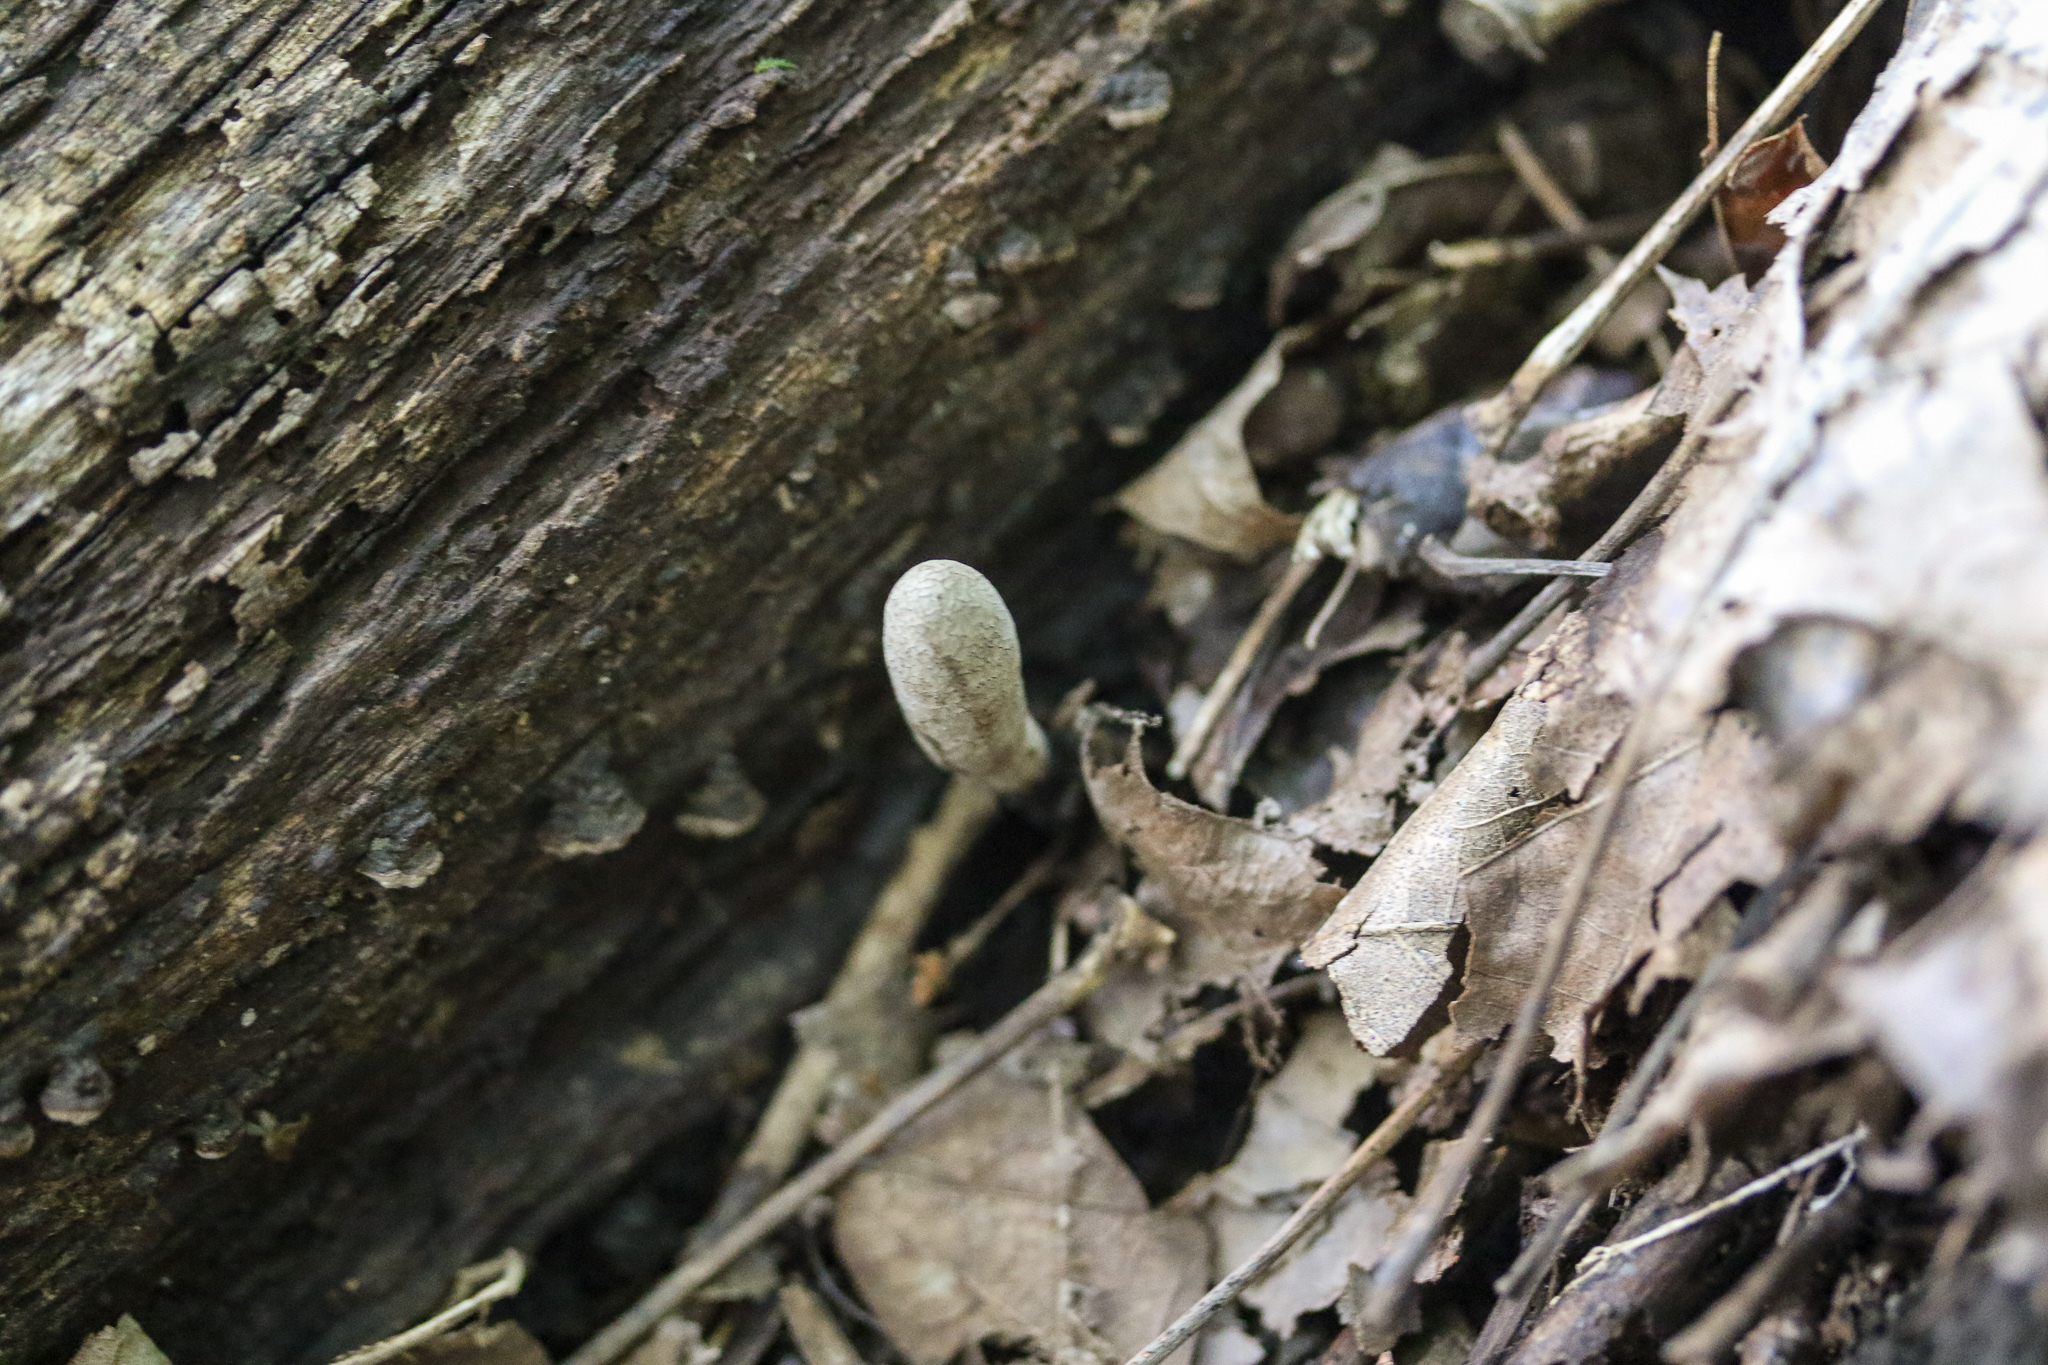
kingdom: Fungi
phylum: Ascomycota
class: Sordariomycetes
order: Xylariales
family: Xylariaceae
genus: Xylaria
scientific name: Xylaria longipes
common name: Dead moll's fingers
